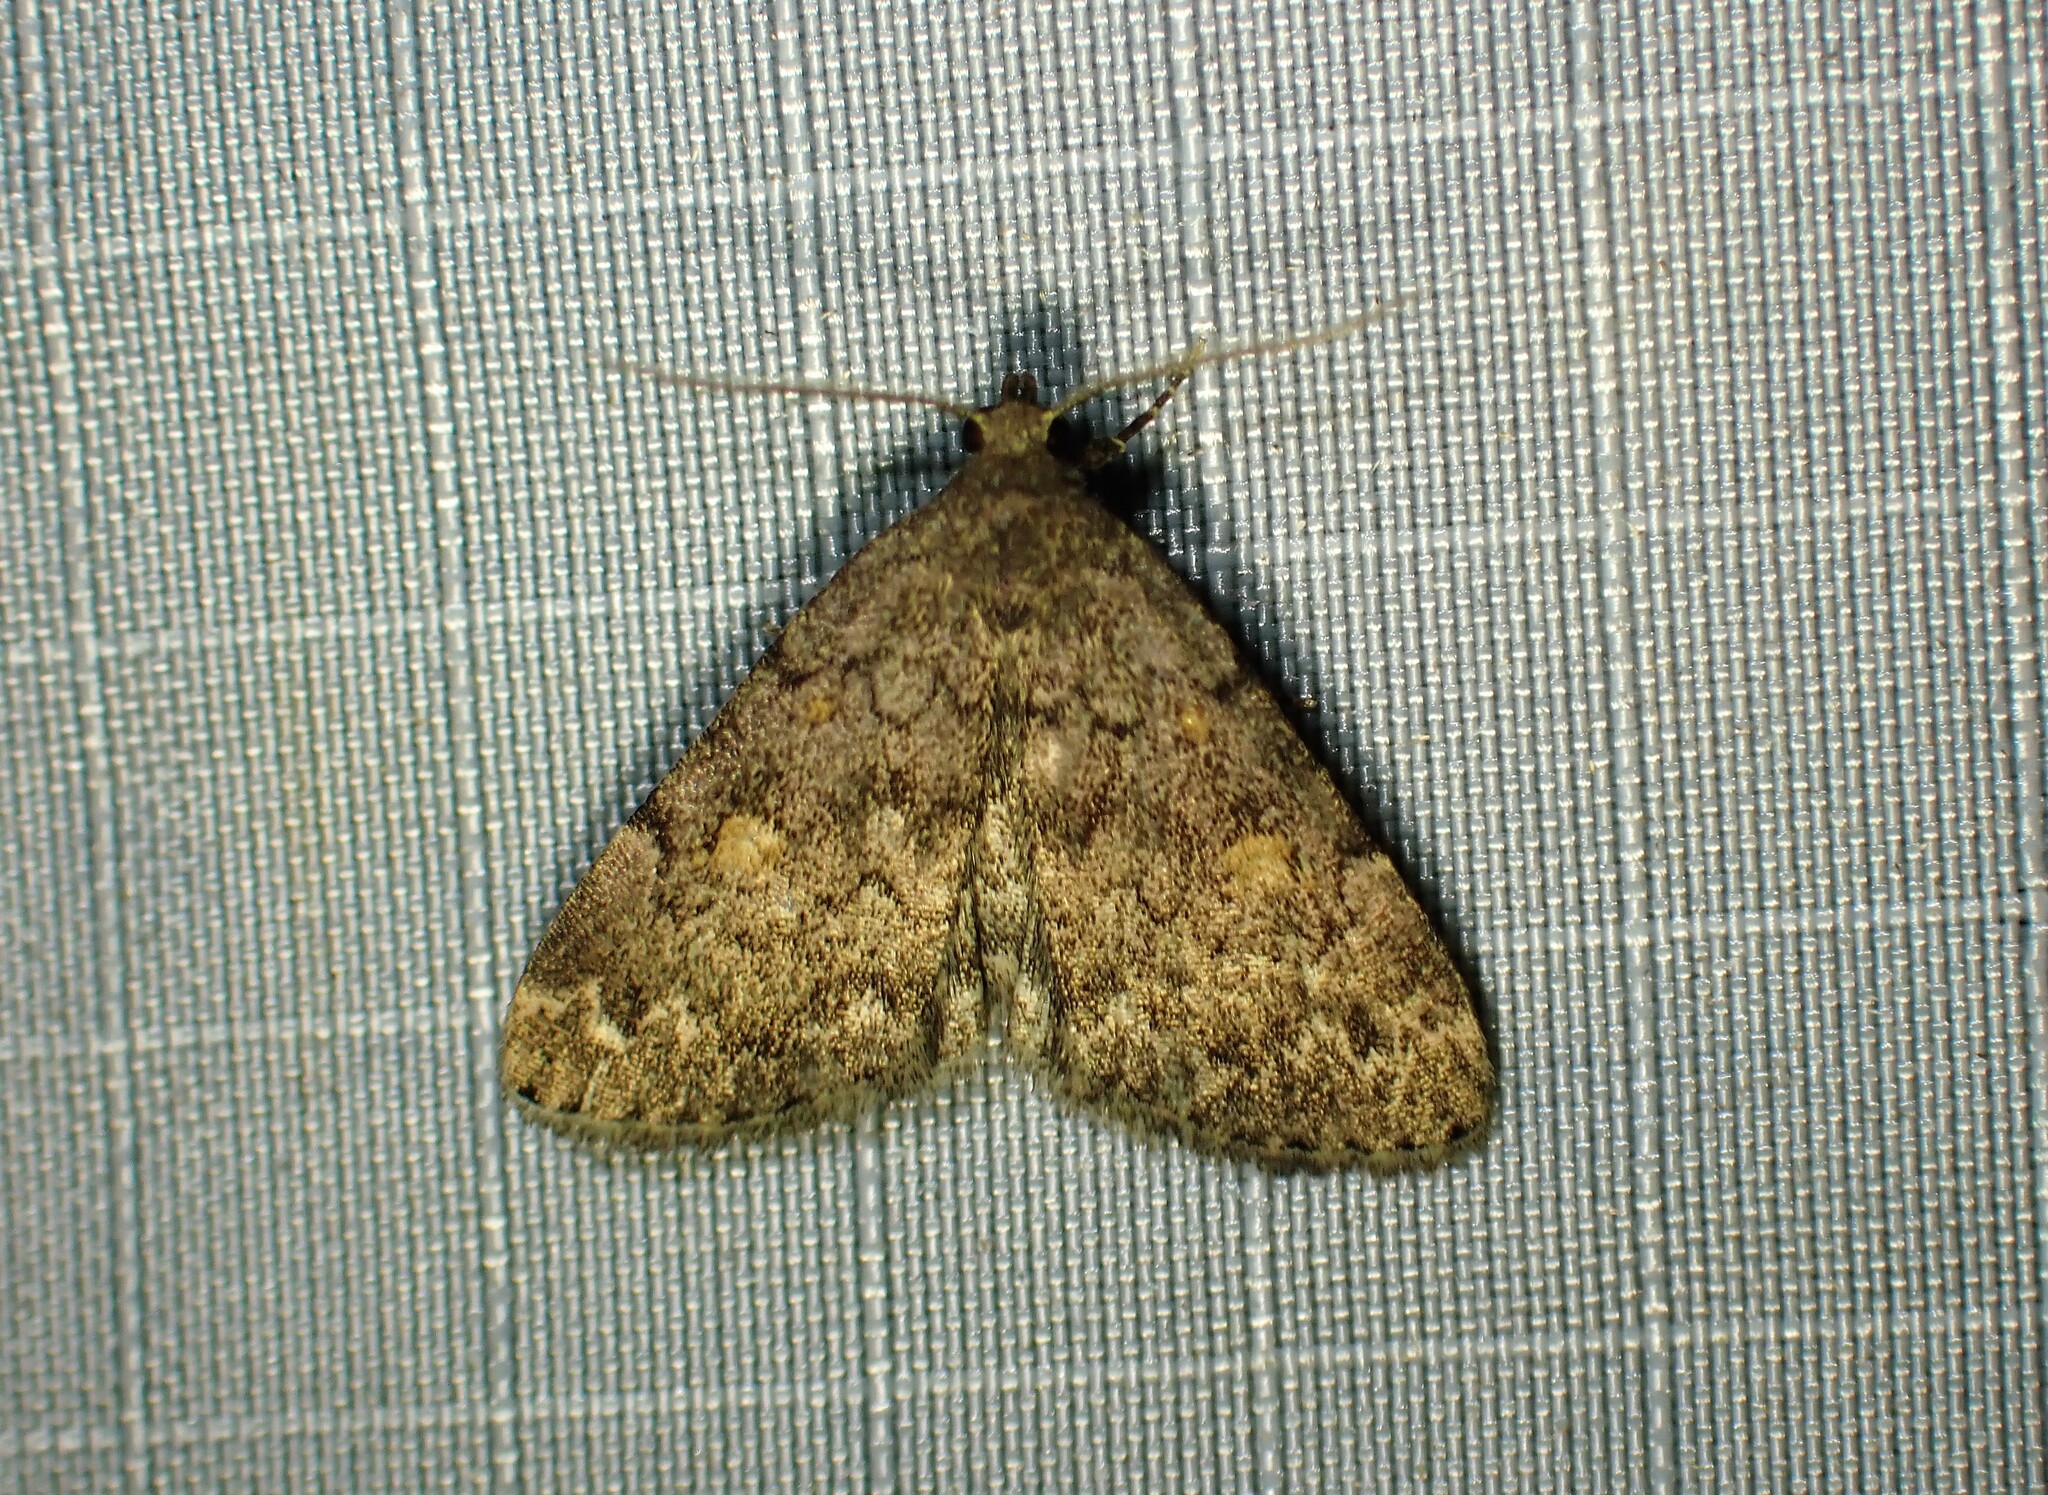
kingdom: Animalia
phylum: Arthropoda
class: Insecta
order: Lepidoptera
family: Erebidae
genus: Idia
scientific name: Idia aemula
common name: Common idia moth
